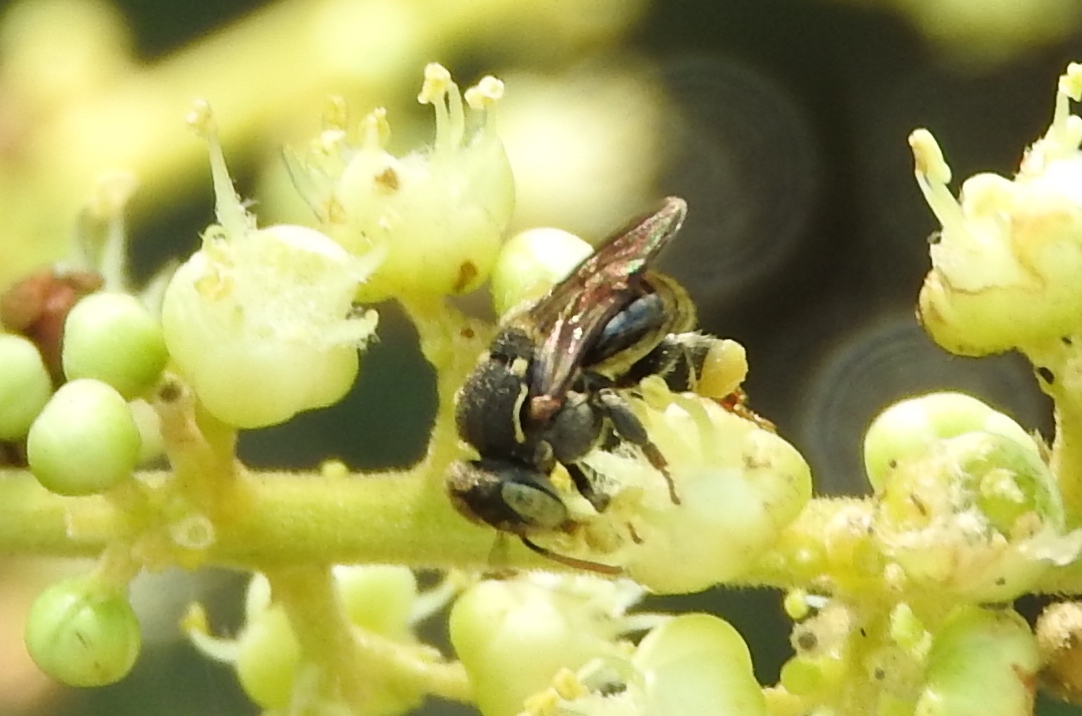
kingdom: Animalia
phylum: Arthropoda
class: Insecta
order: Hymenoptera
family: Apidae
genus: Nannotrigona
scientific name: Nannotrigona perilampoides
